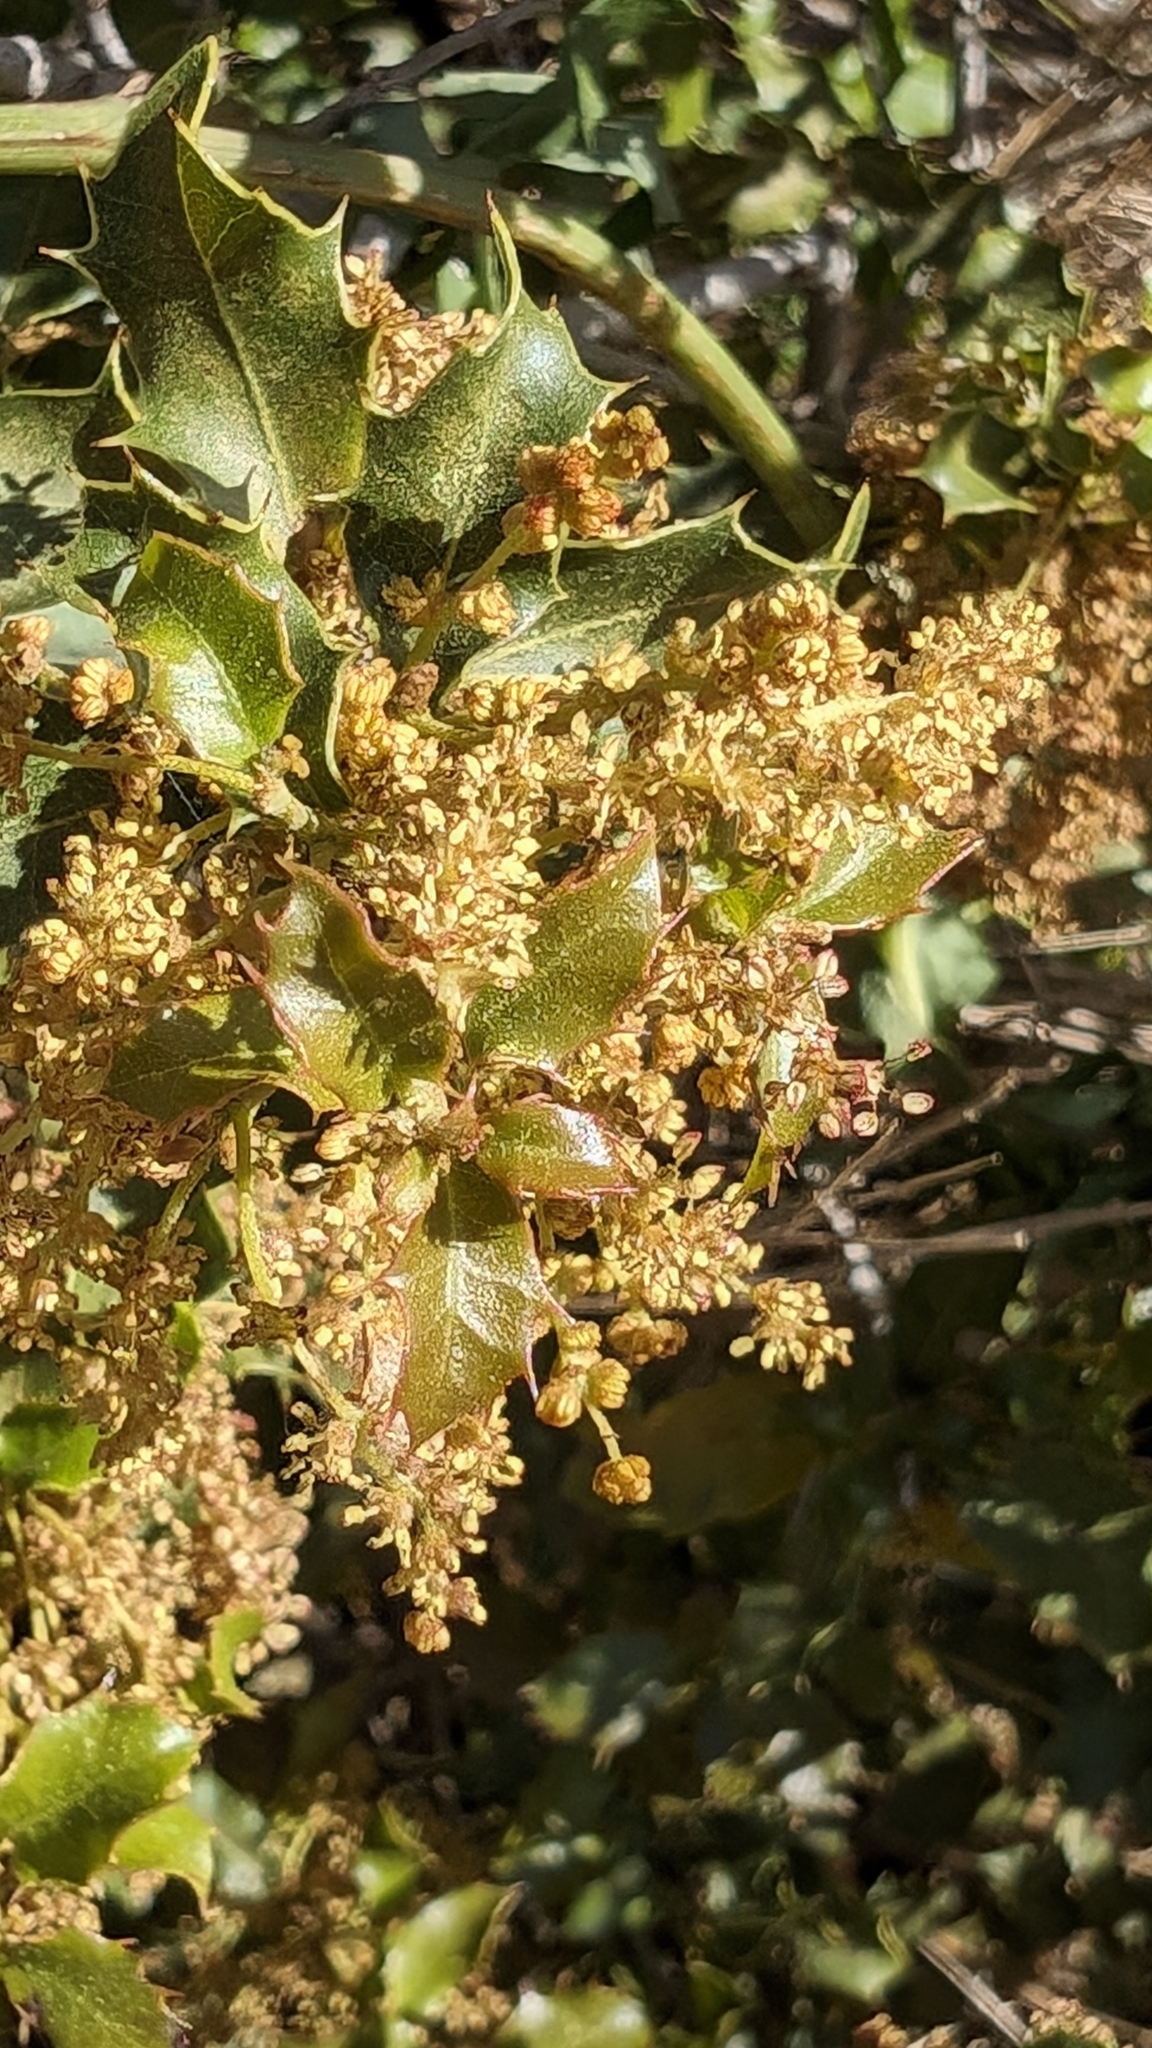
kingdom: Plantae
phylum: Tracheophyta
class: Magnoliopsida
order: Fagales
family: Fagaceae
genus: Quercus
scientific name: Quercus coccifera
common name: Kermes oak
